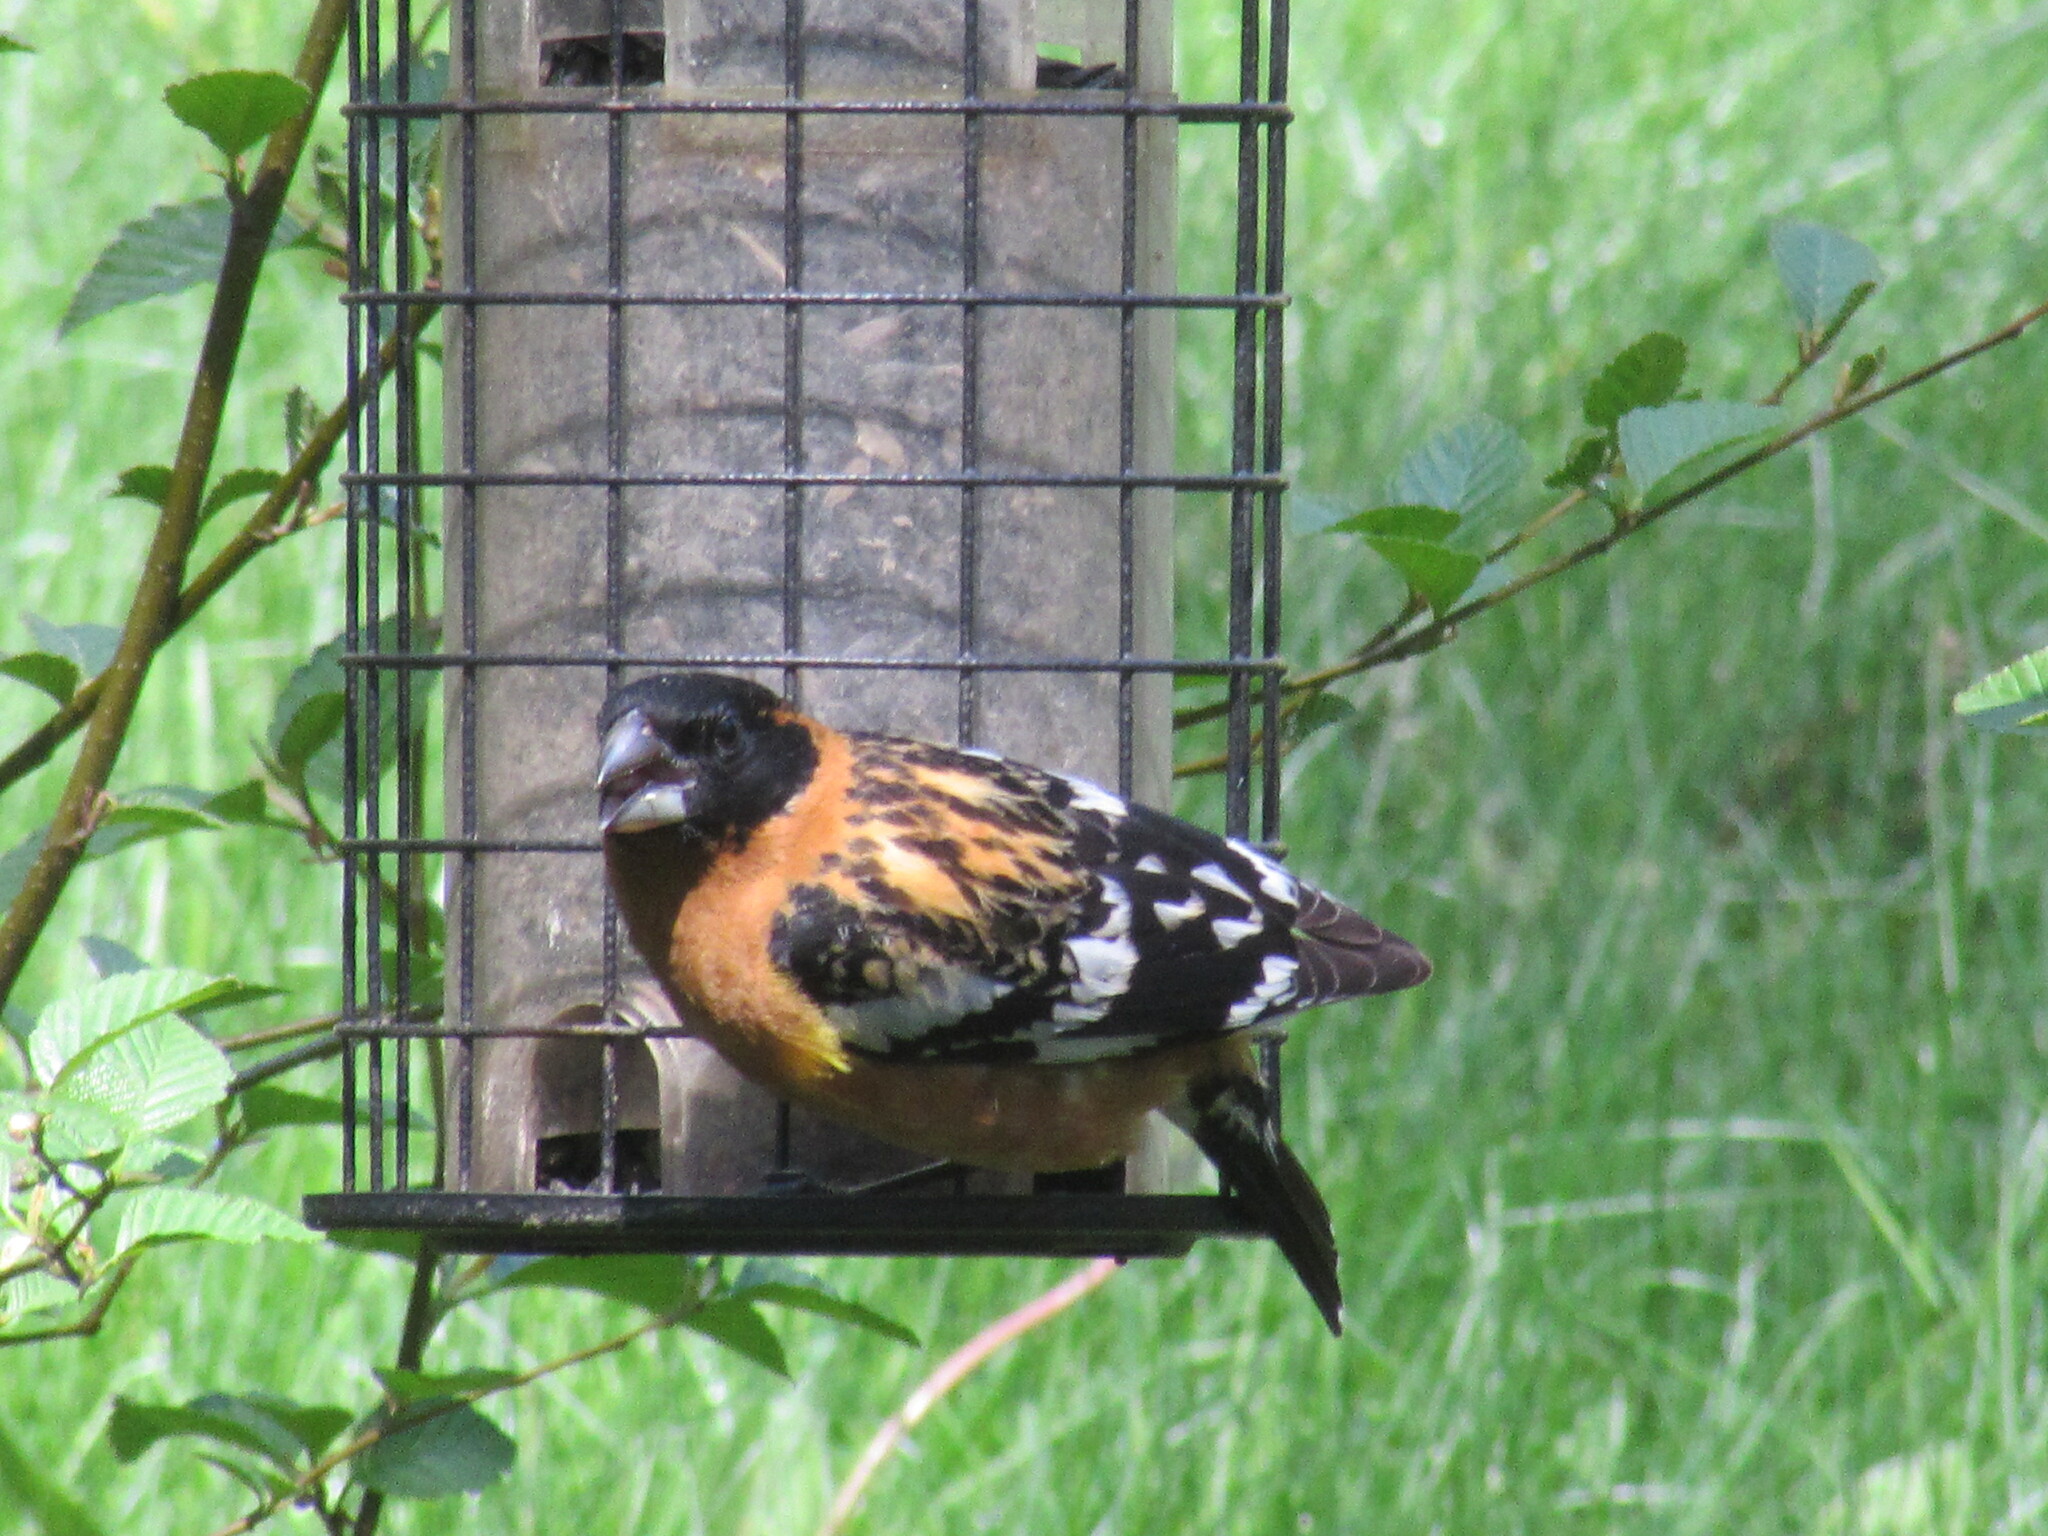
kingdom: Animalia
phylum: Chordata
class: Aves
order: Passeriformes
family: Cardinalidae
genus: Pheucticus
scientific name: Pheucticus melanocephalus
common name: Black-headed grosbeak
